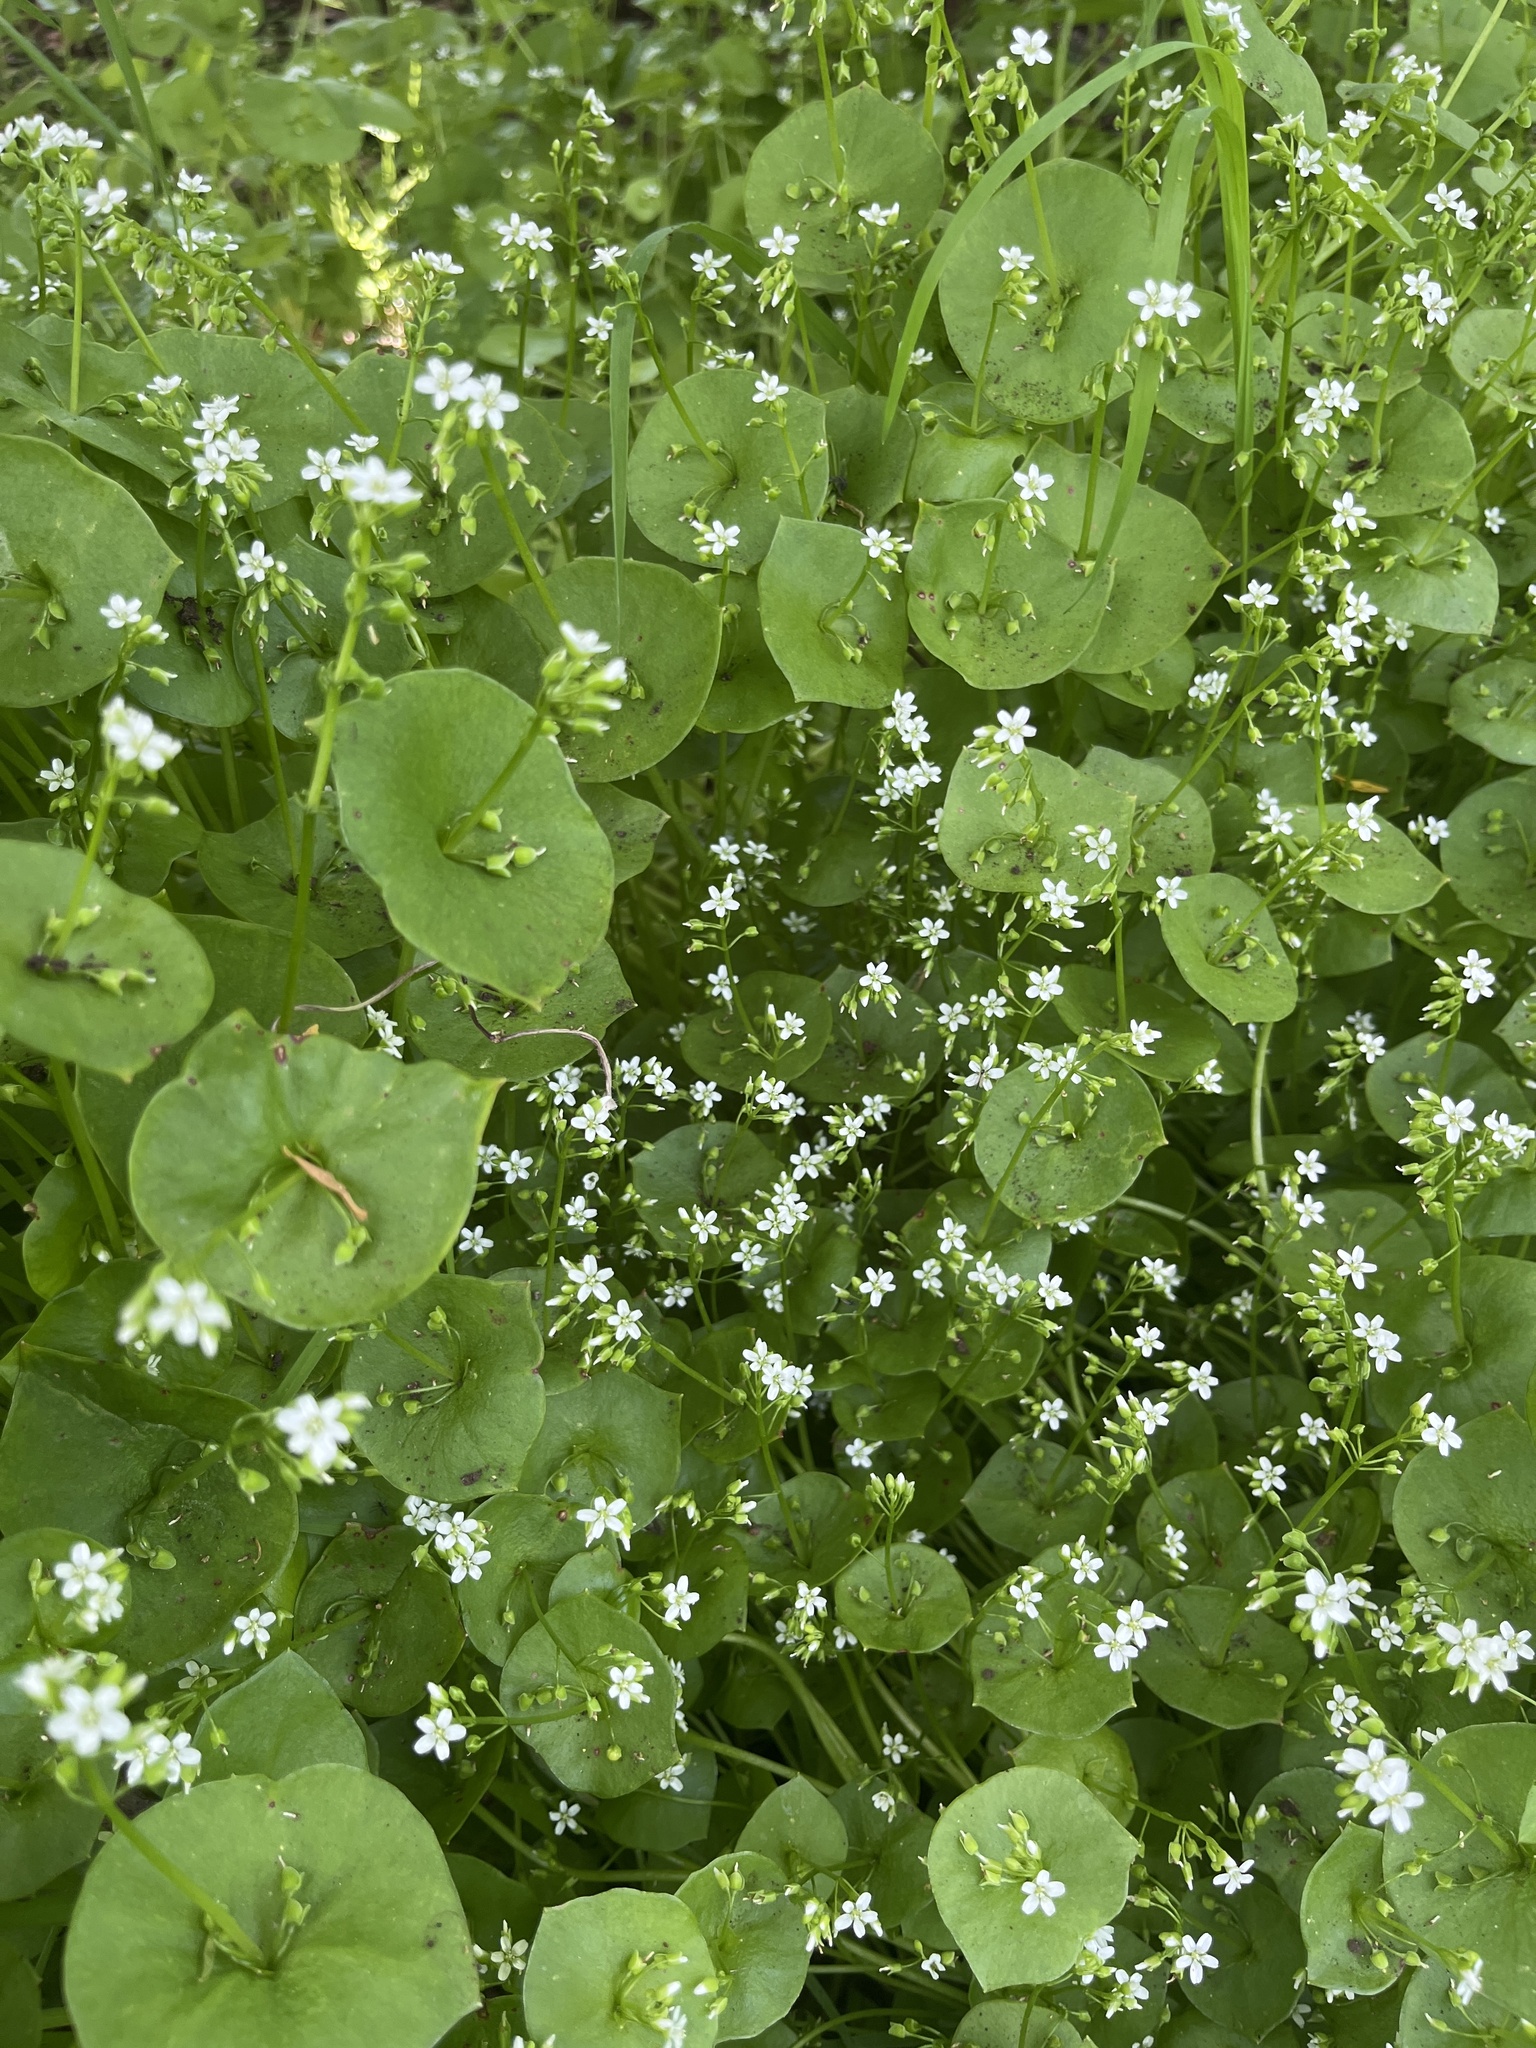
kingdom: Plantae
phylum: Tracheophyta
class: Magnoliopsida
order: Caryophyllales
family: Montiaceae
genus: Claytonia
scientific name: Claytonia perfoliata
